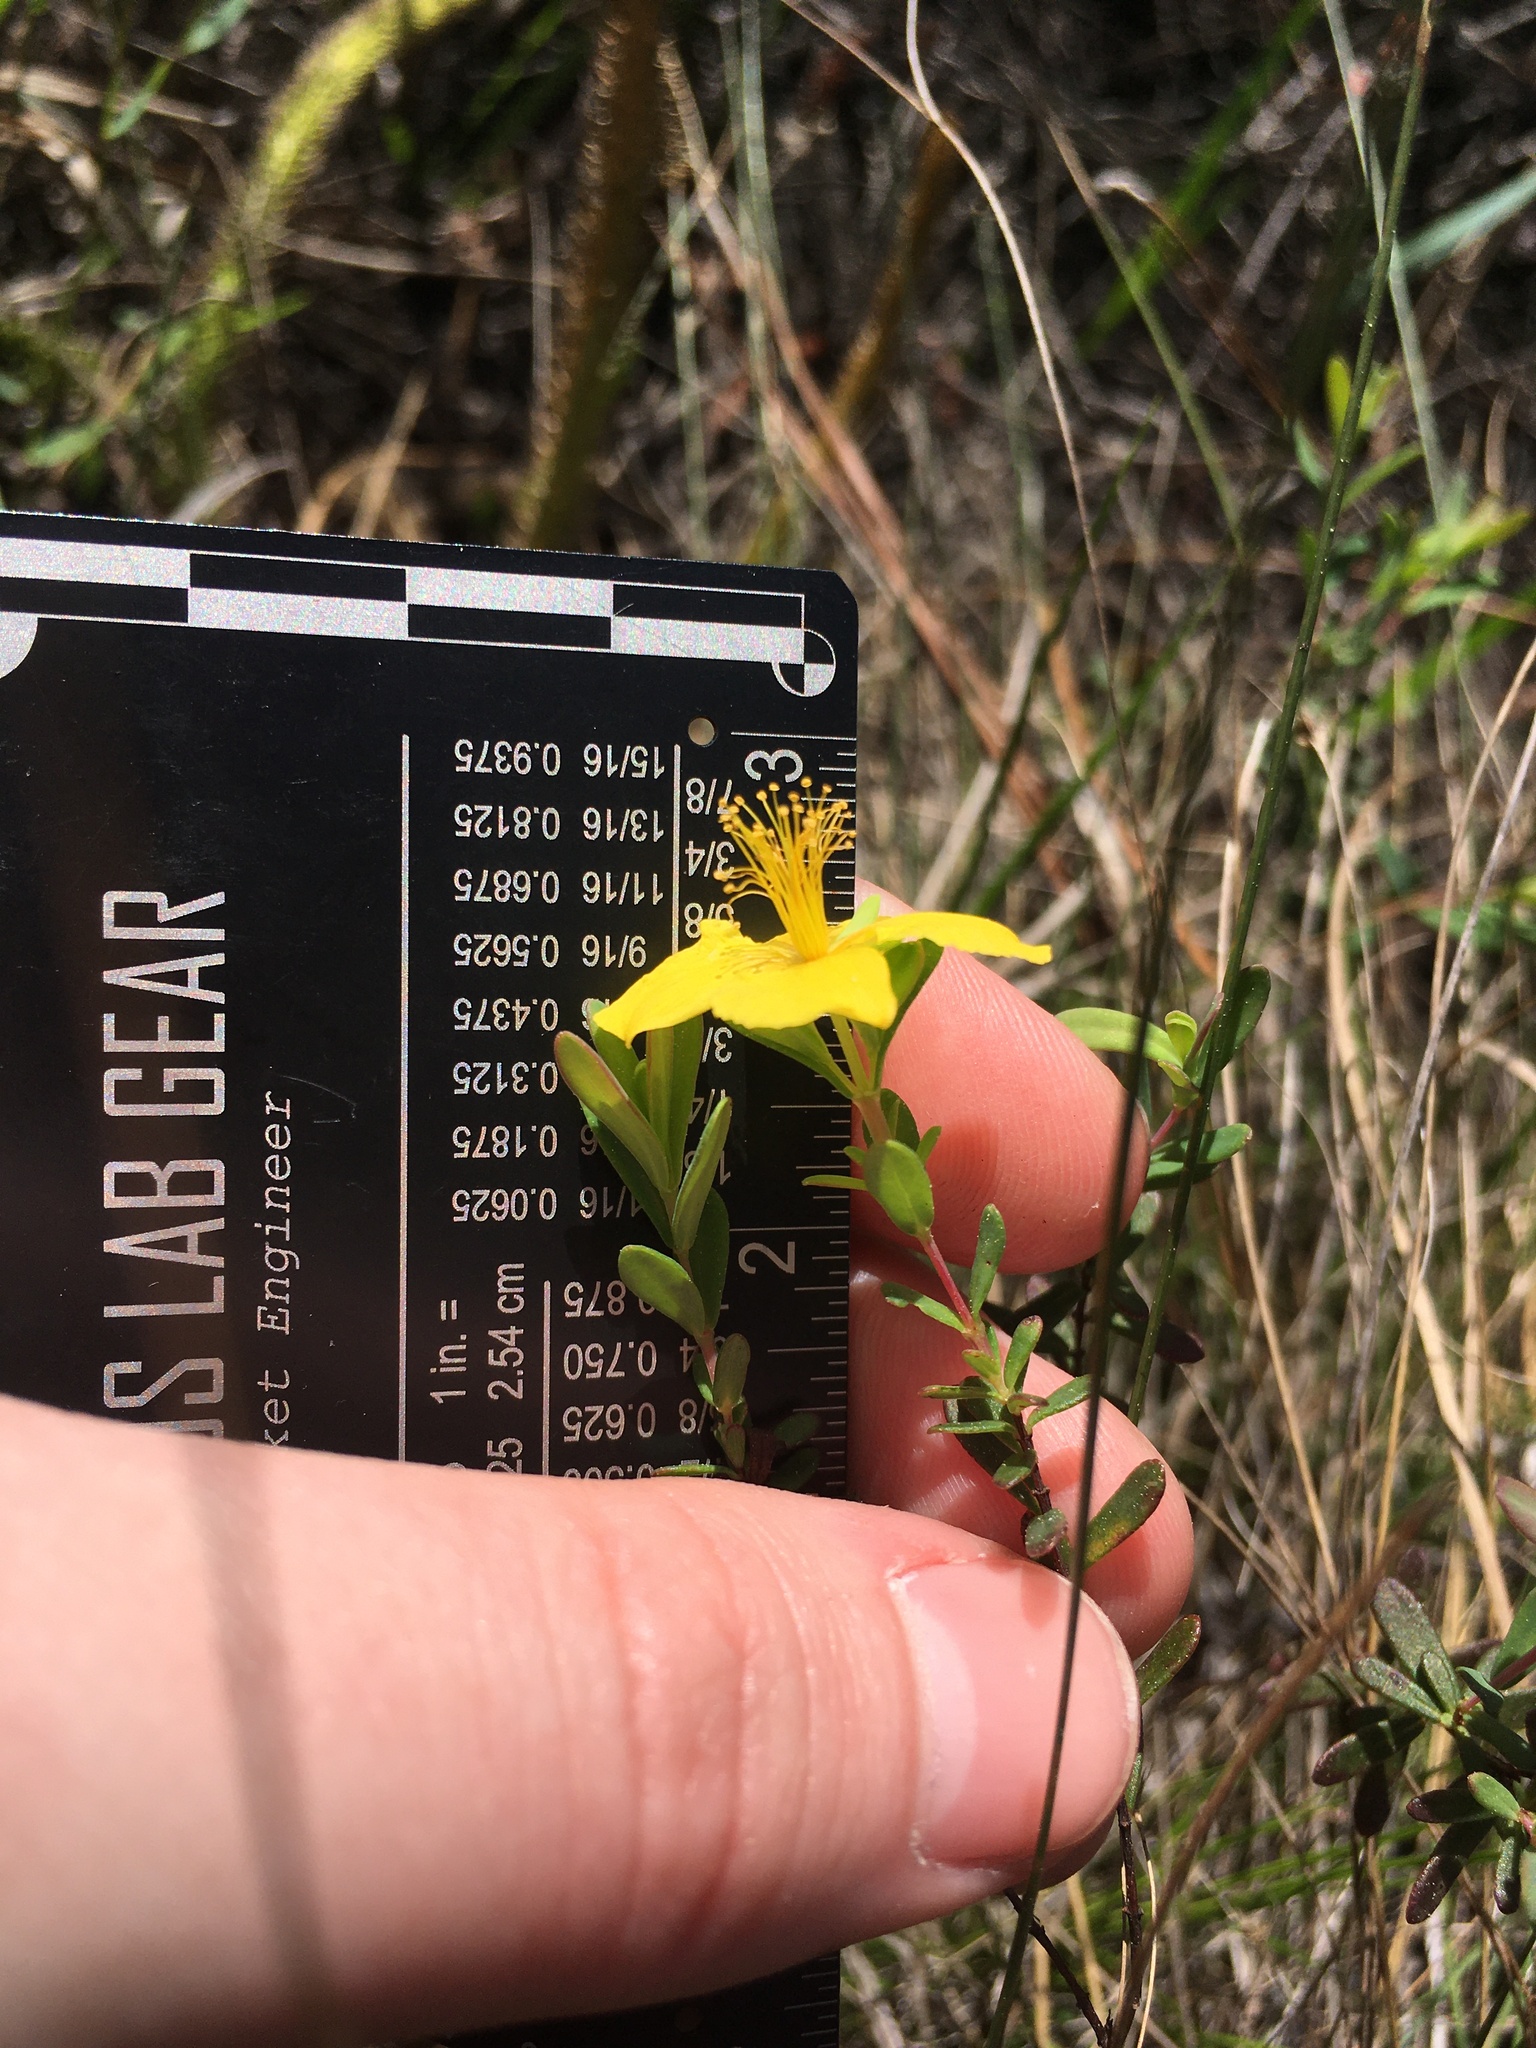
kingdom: Plantae
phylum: Tracheophyta
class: Magnoliopsida
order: Malpighiales
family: Hypericaceae
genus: Hypericum
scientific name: Hypericum microsepalum
